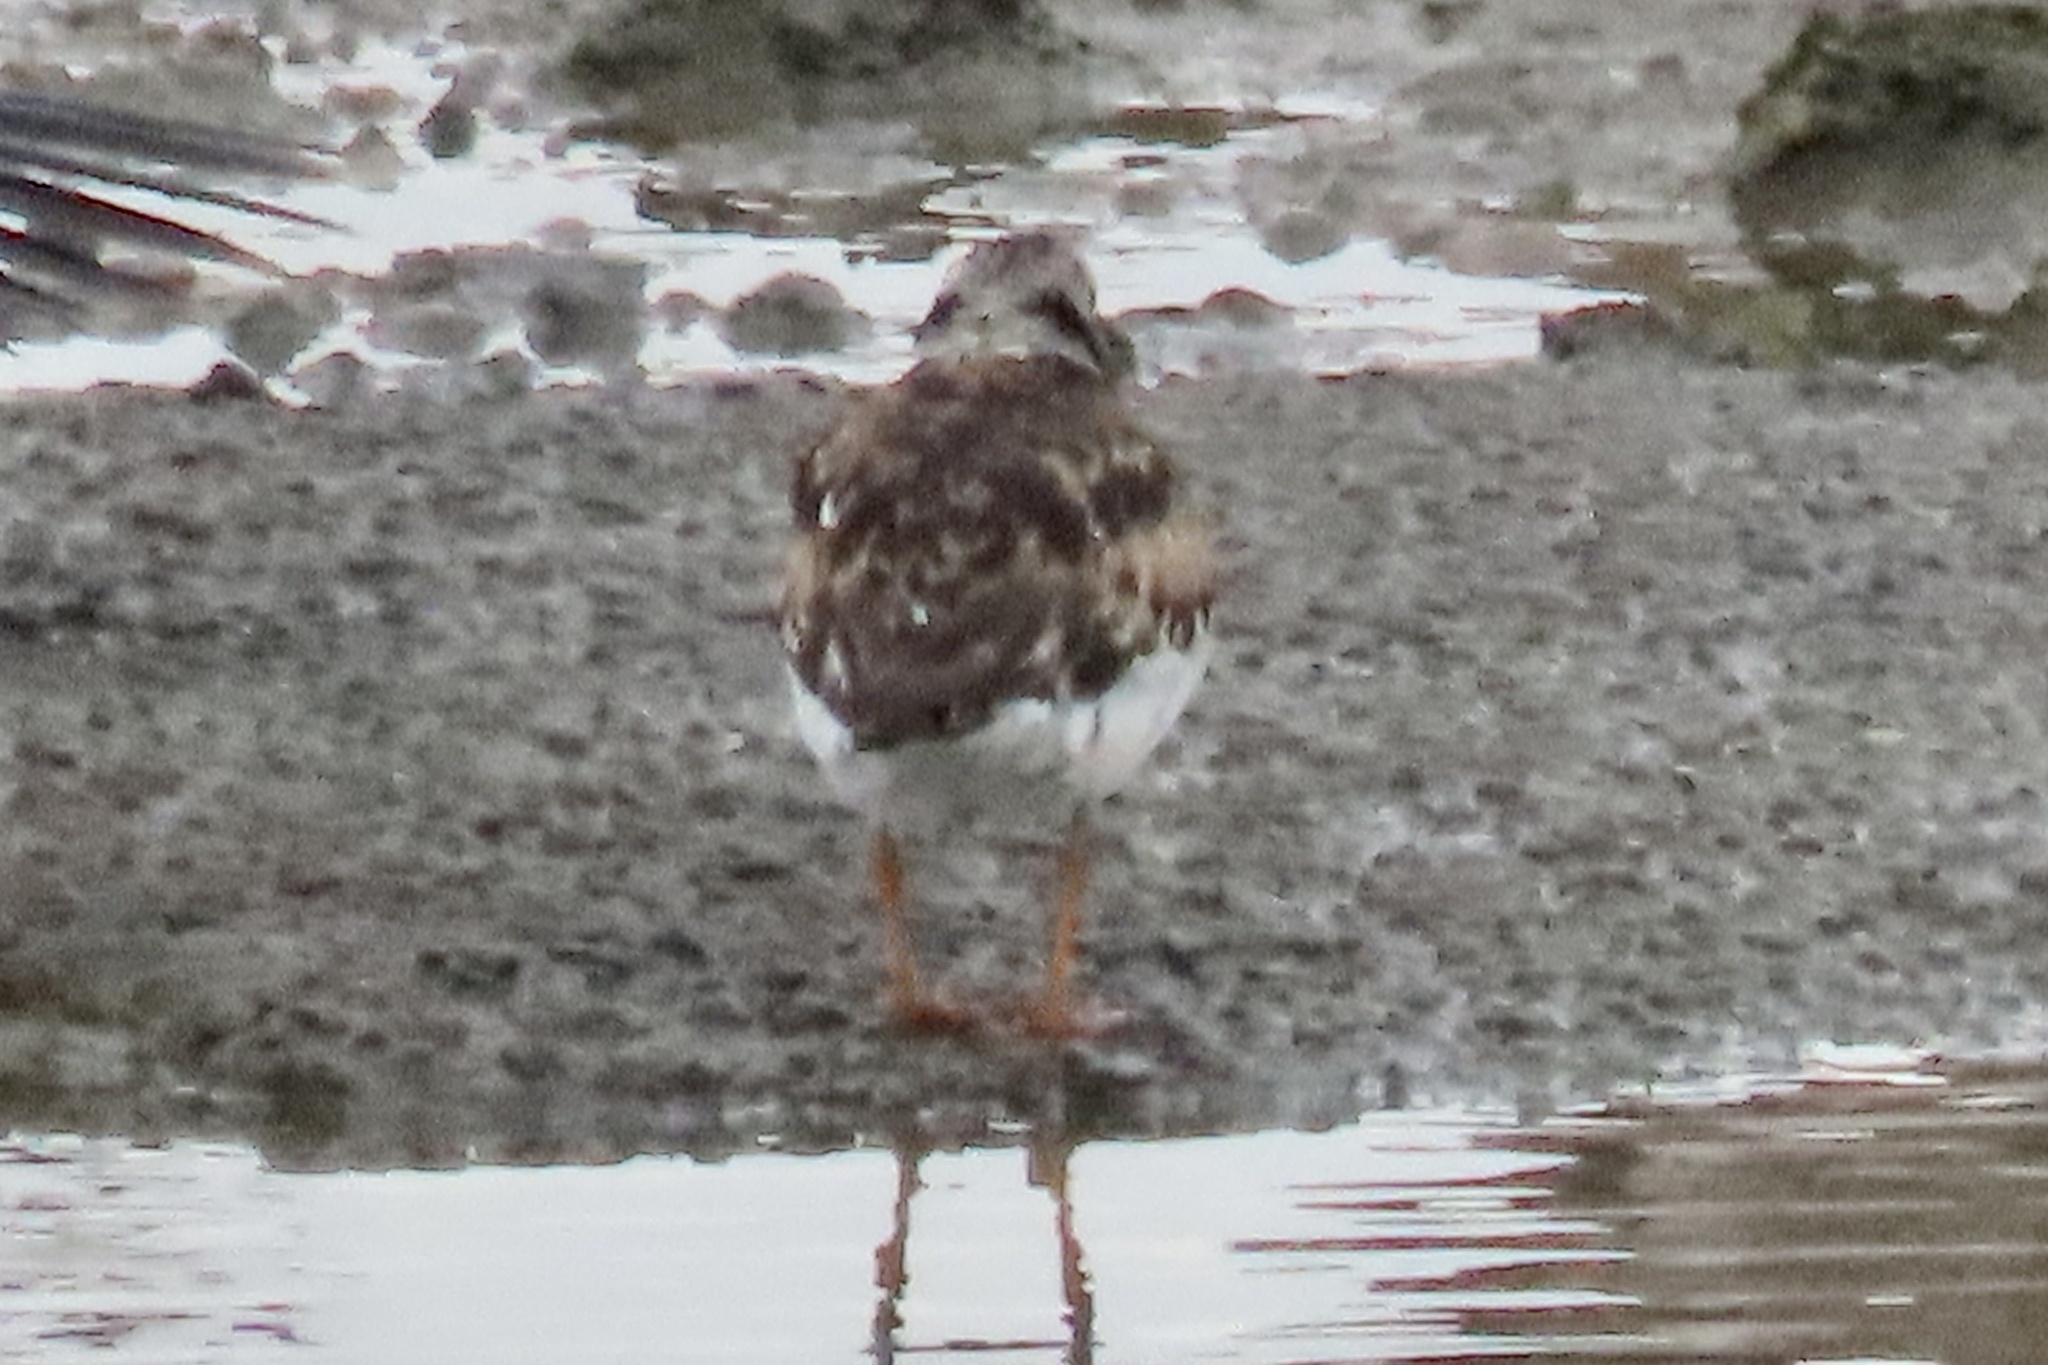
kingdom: Animalia
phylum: Chordata
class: Aves
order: Charadriiformes
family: Scolopacidae
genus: Arenaria
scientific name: Arenaria interpres
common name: Ruddy turnstone
